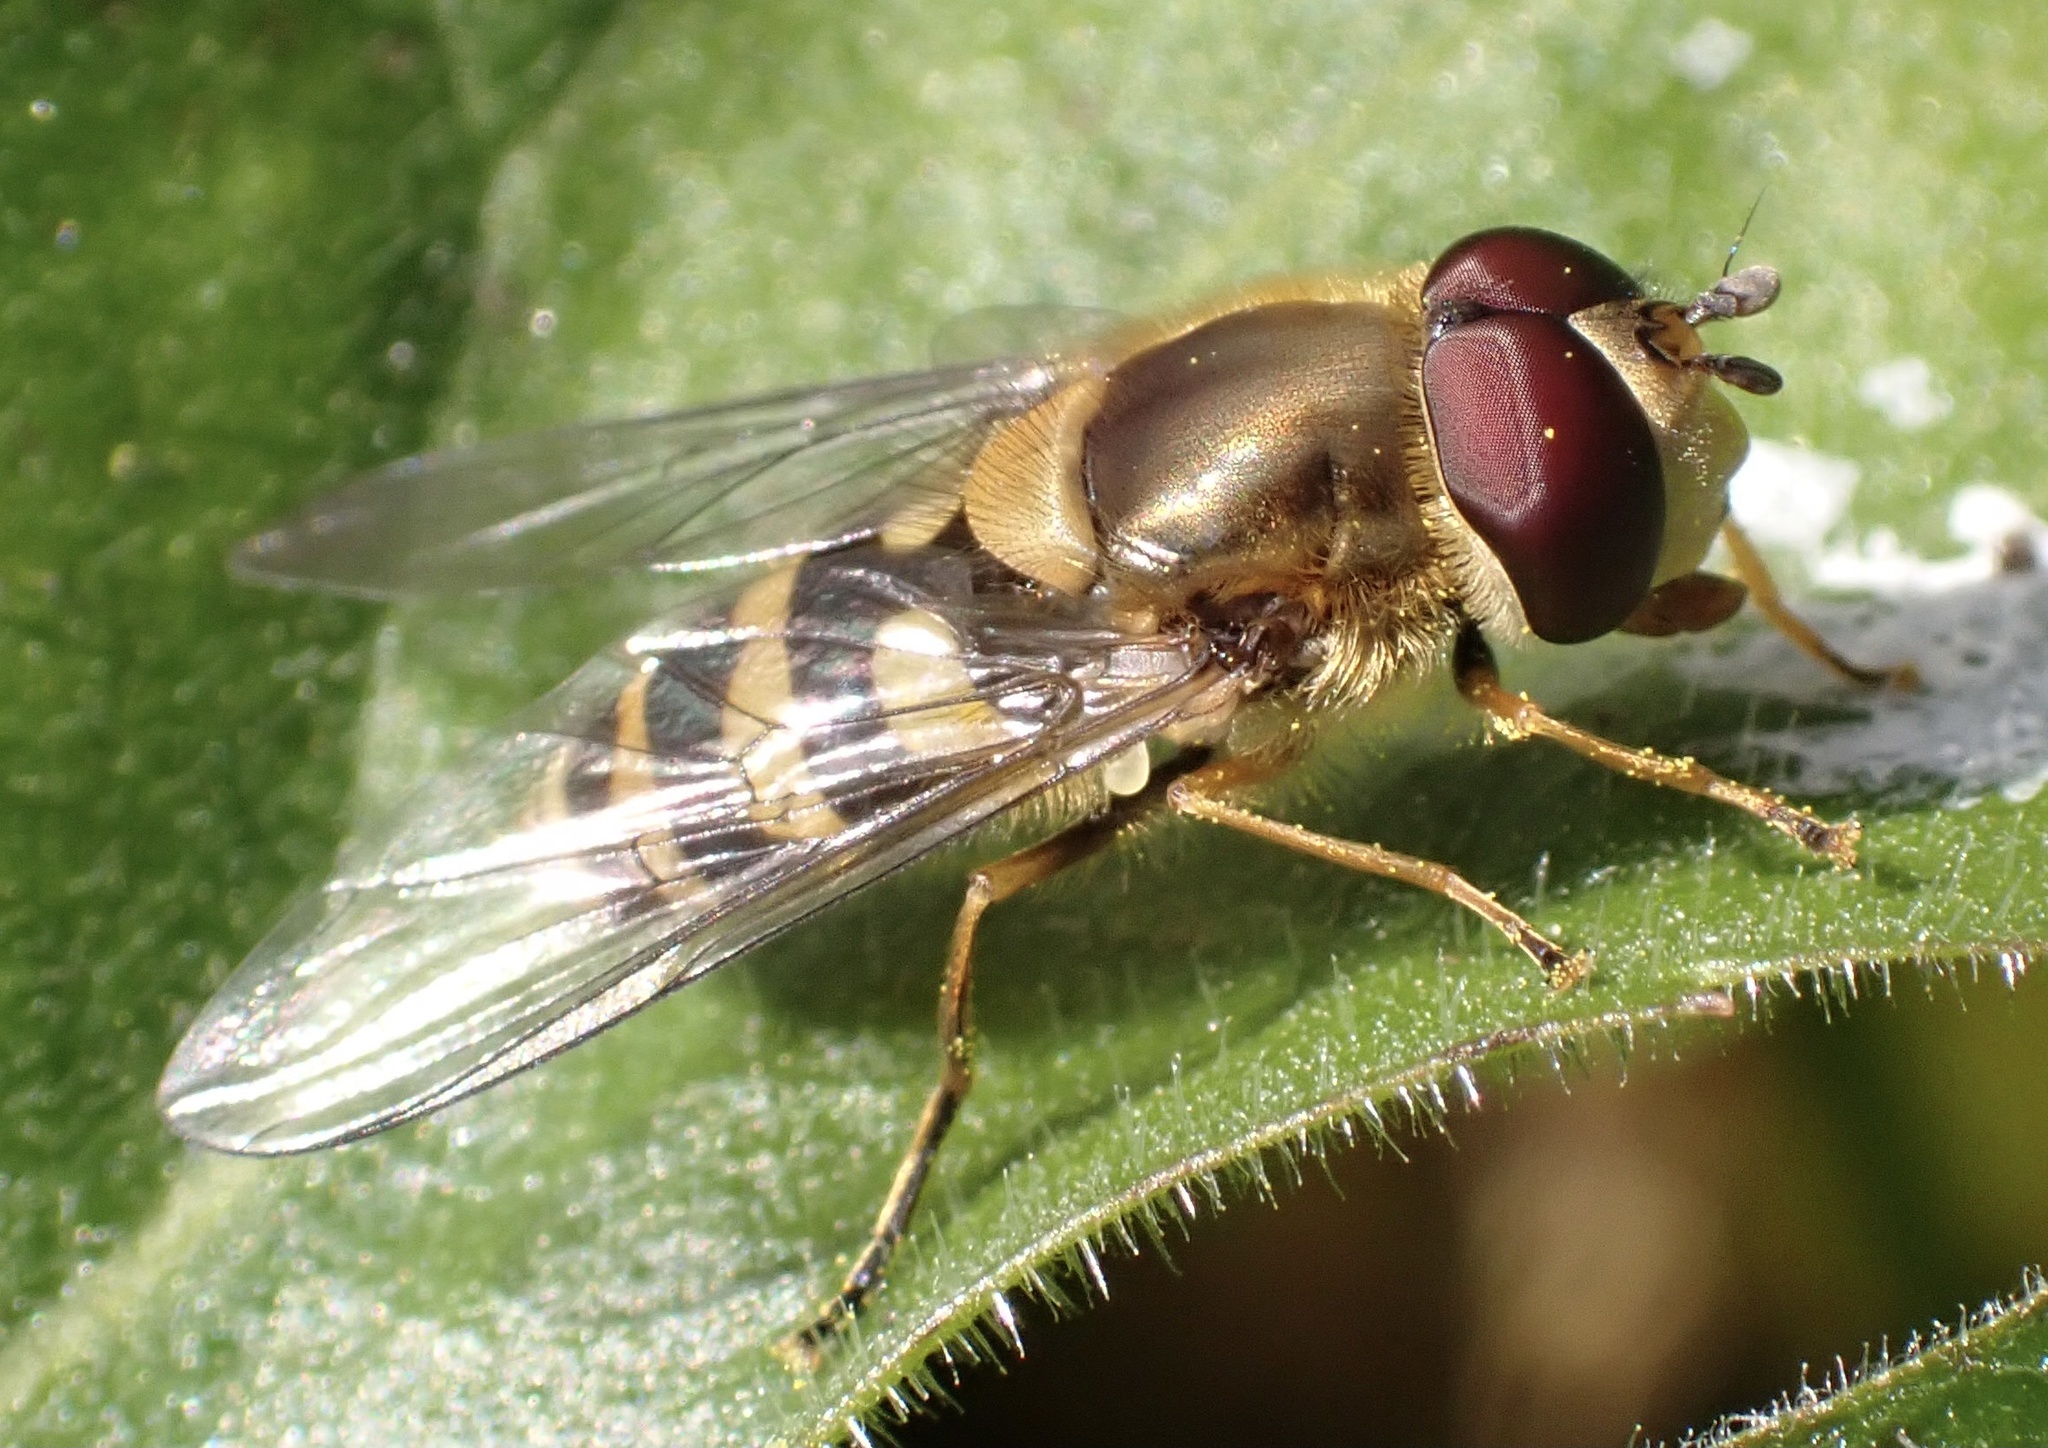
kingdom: Animalia
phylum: Arthropoda
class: Insecta
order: Diptera
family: Syrphidae
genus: Syrphus
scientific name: Syrphus
